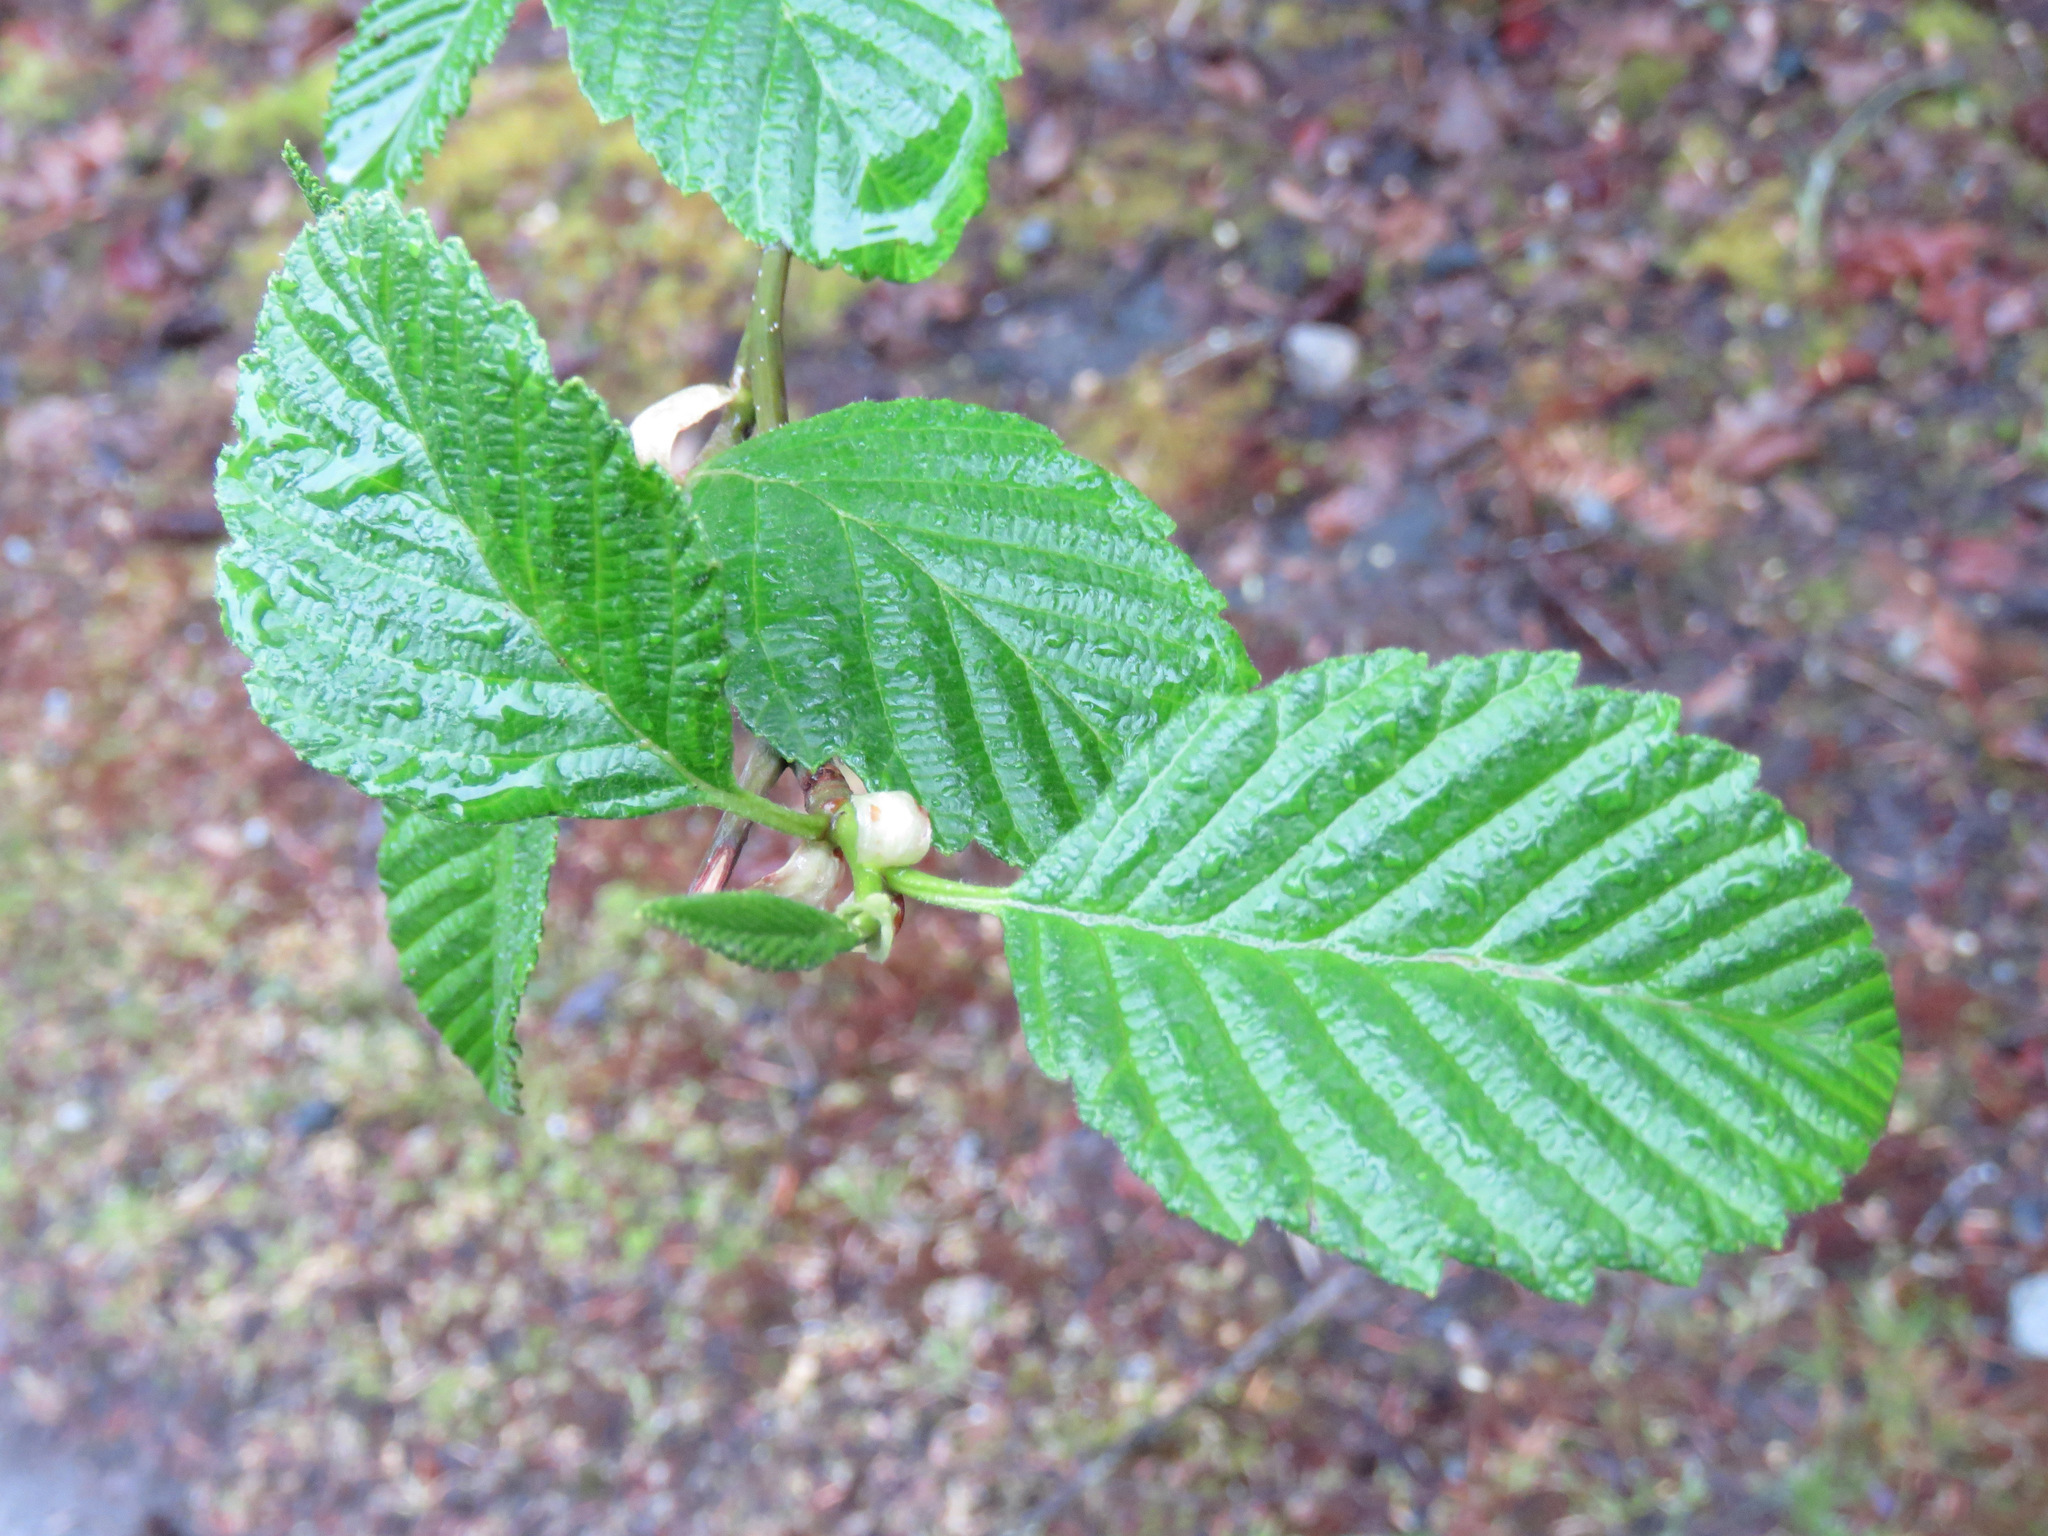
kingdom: Plantae
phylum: Tracheophyta
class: Magnoliopsida
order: Fagales
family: Betulaceae
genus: Alnus
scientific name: Alnus rubra
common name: Red alder
